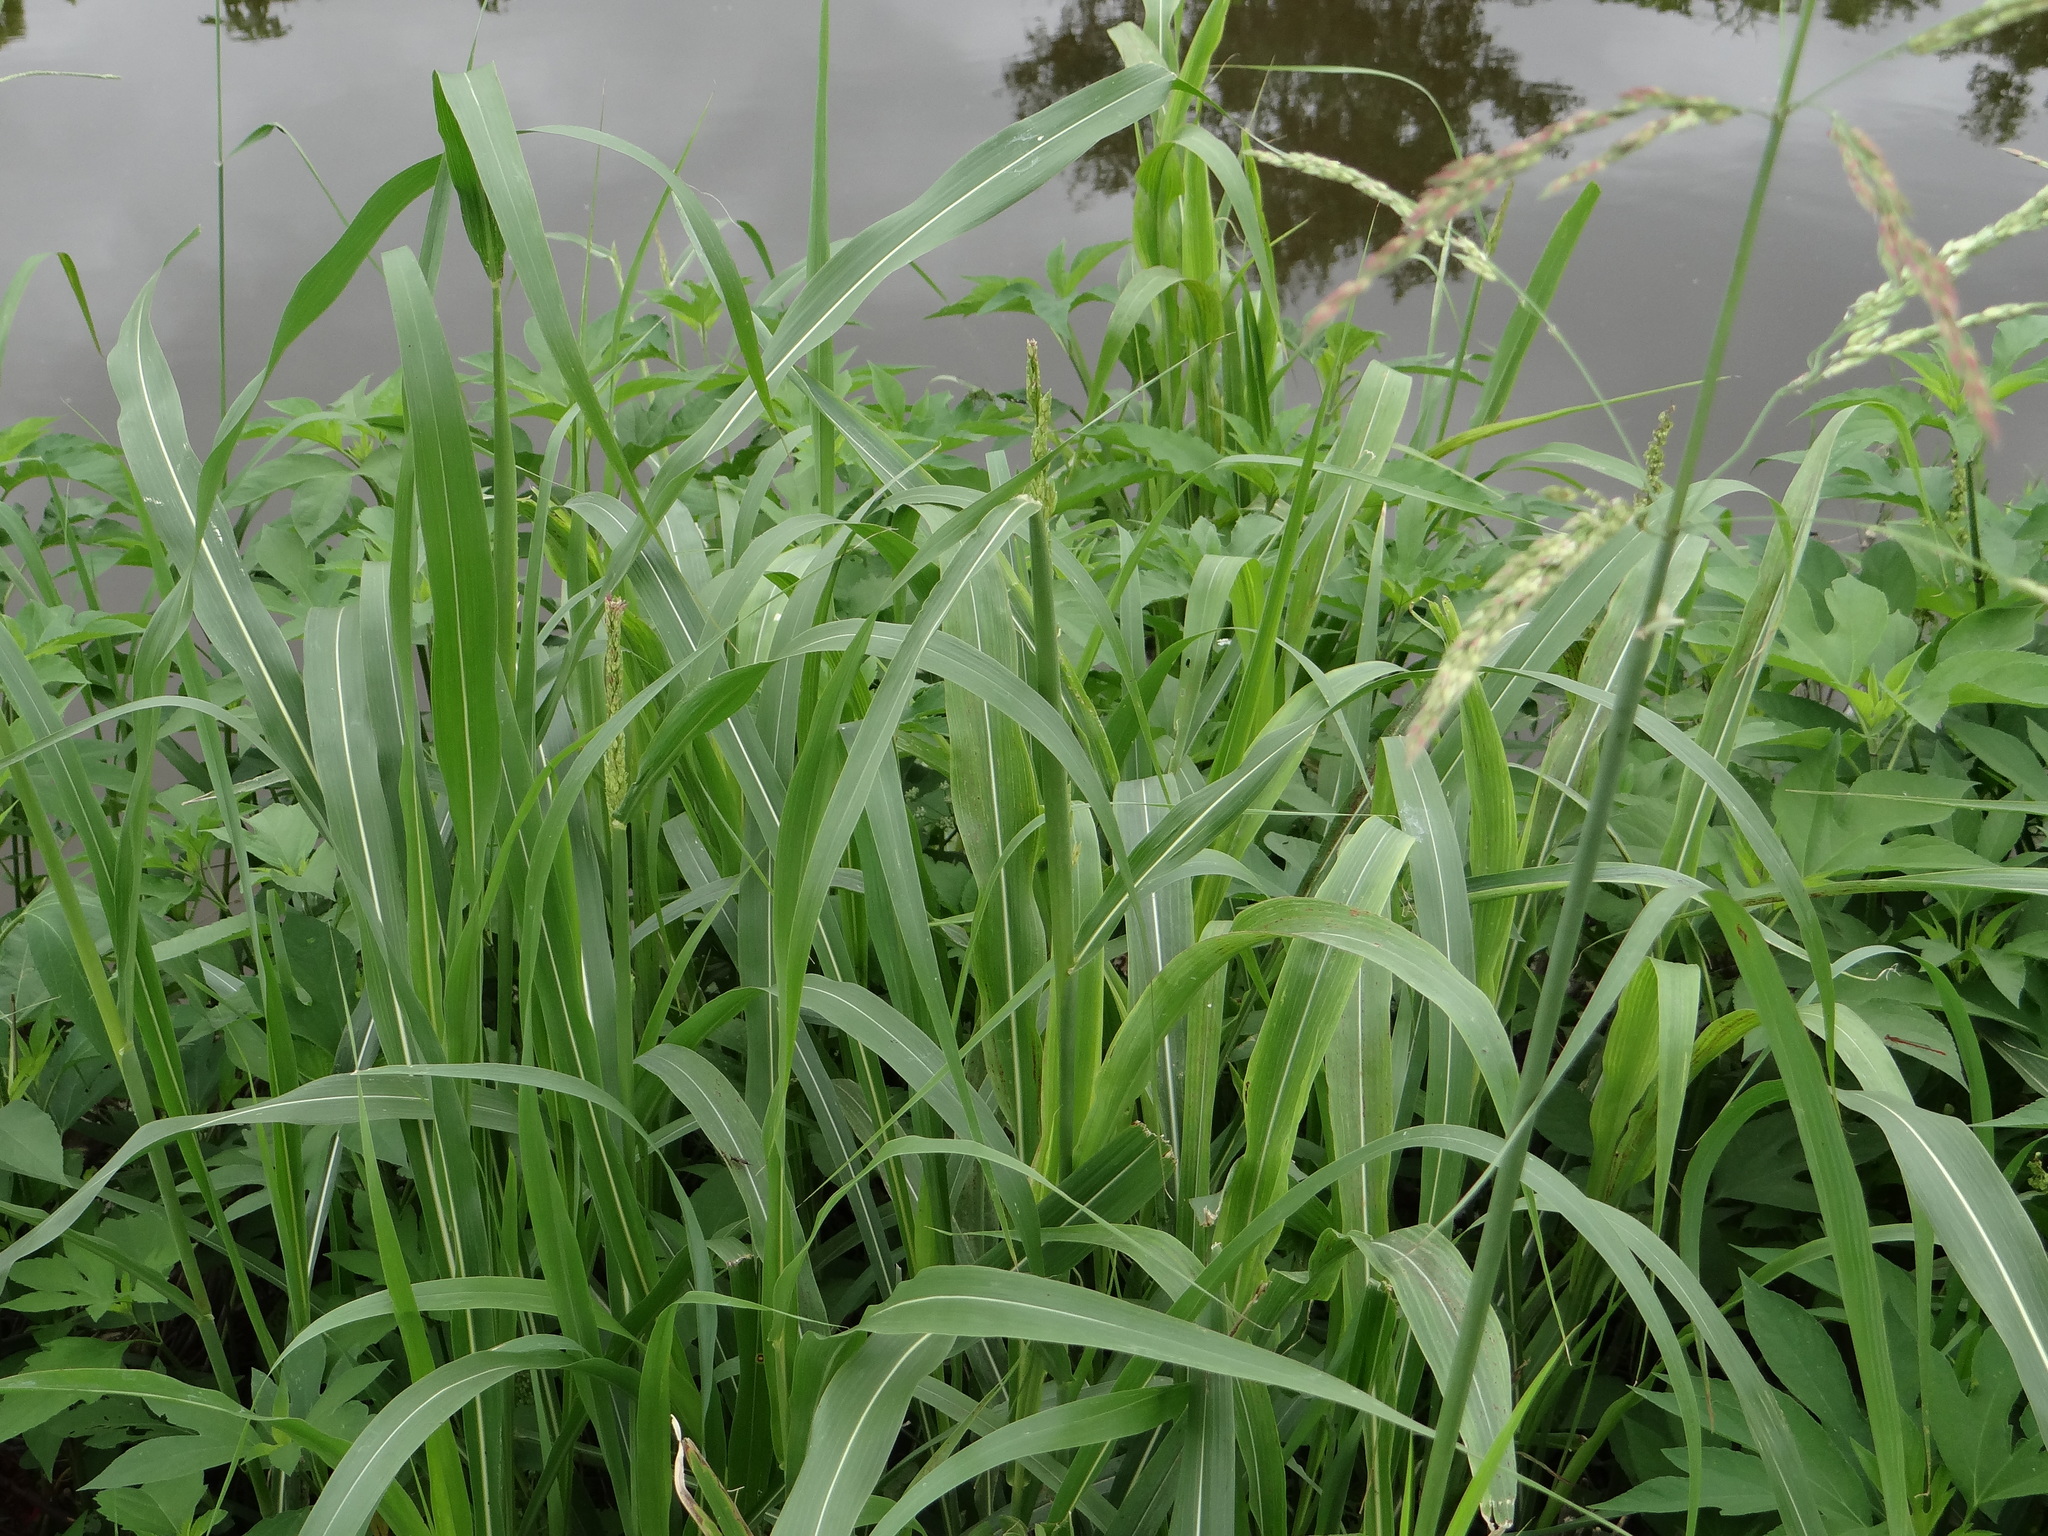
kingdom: Plantae
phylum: Tracheophyta
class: Liliopsida
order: Poales
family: Poaceae
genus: Sorghum
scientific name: Sorghum halepense
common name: Johnson-grass
